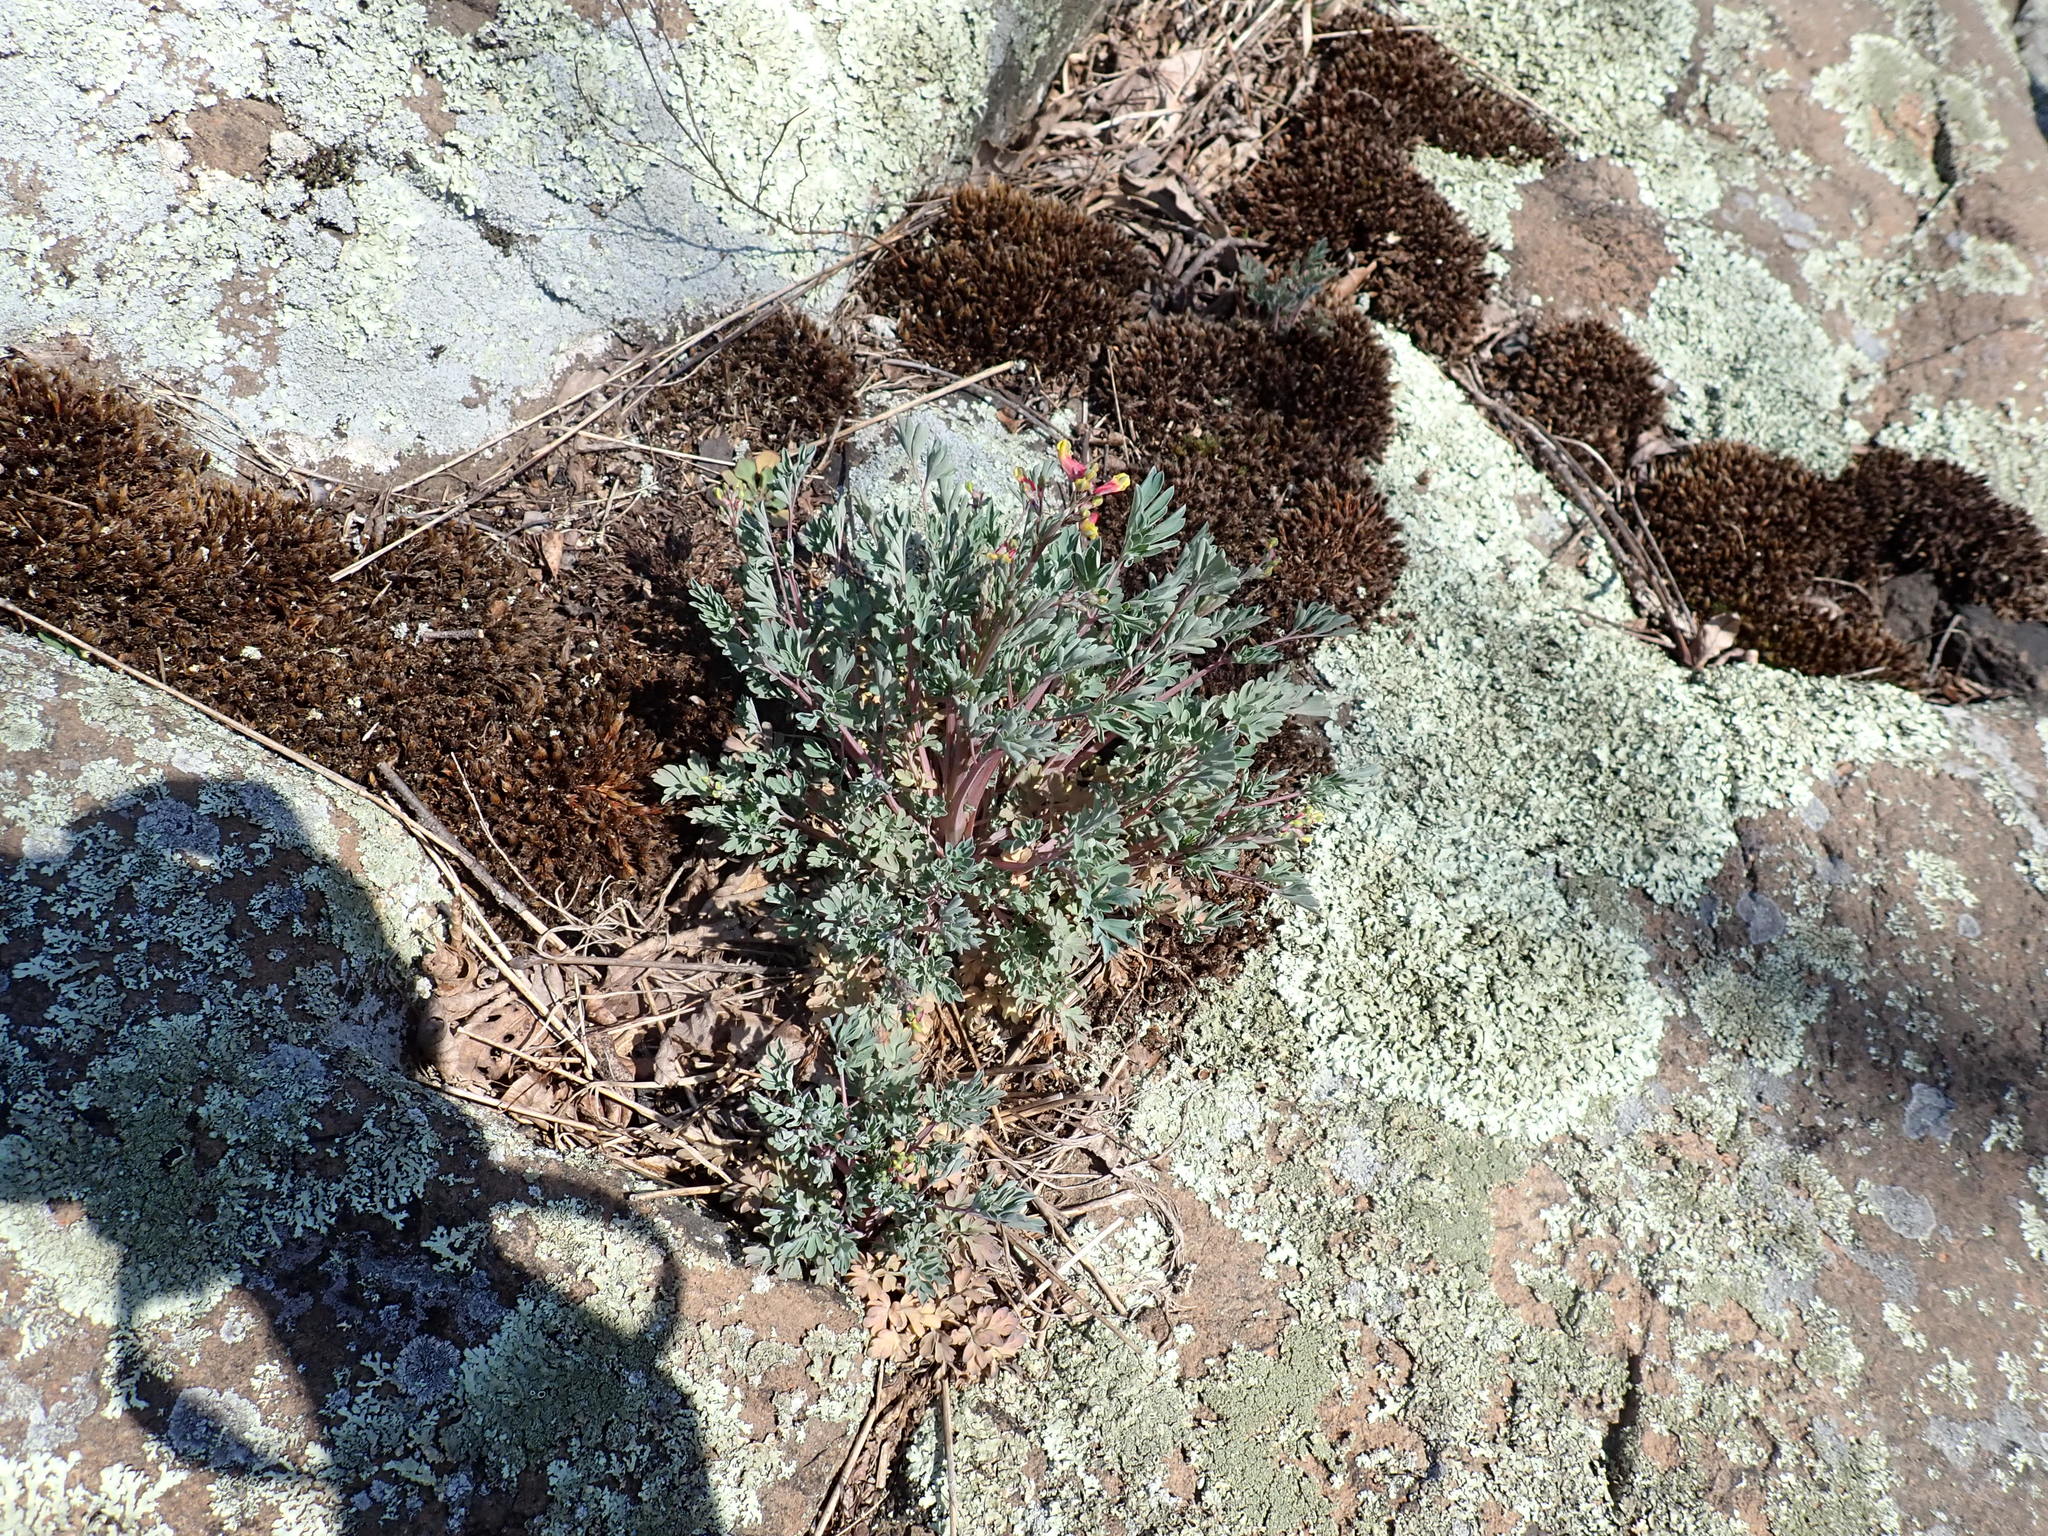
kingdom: Plantae
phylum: Tracheophyta
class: Magnoliopsida
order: Ranunculales
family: Papaveraceae
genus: Capnoides
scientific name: Capnoides sempervirens
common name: Rock harlequin
